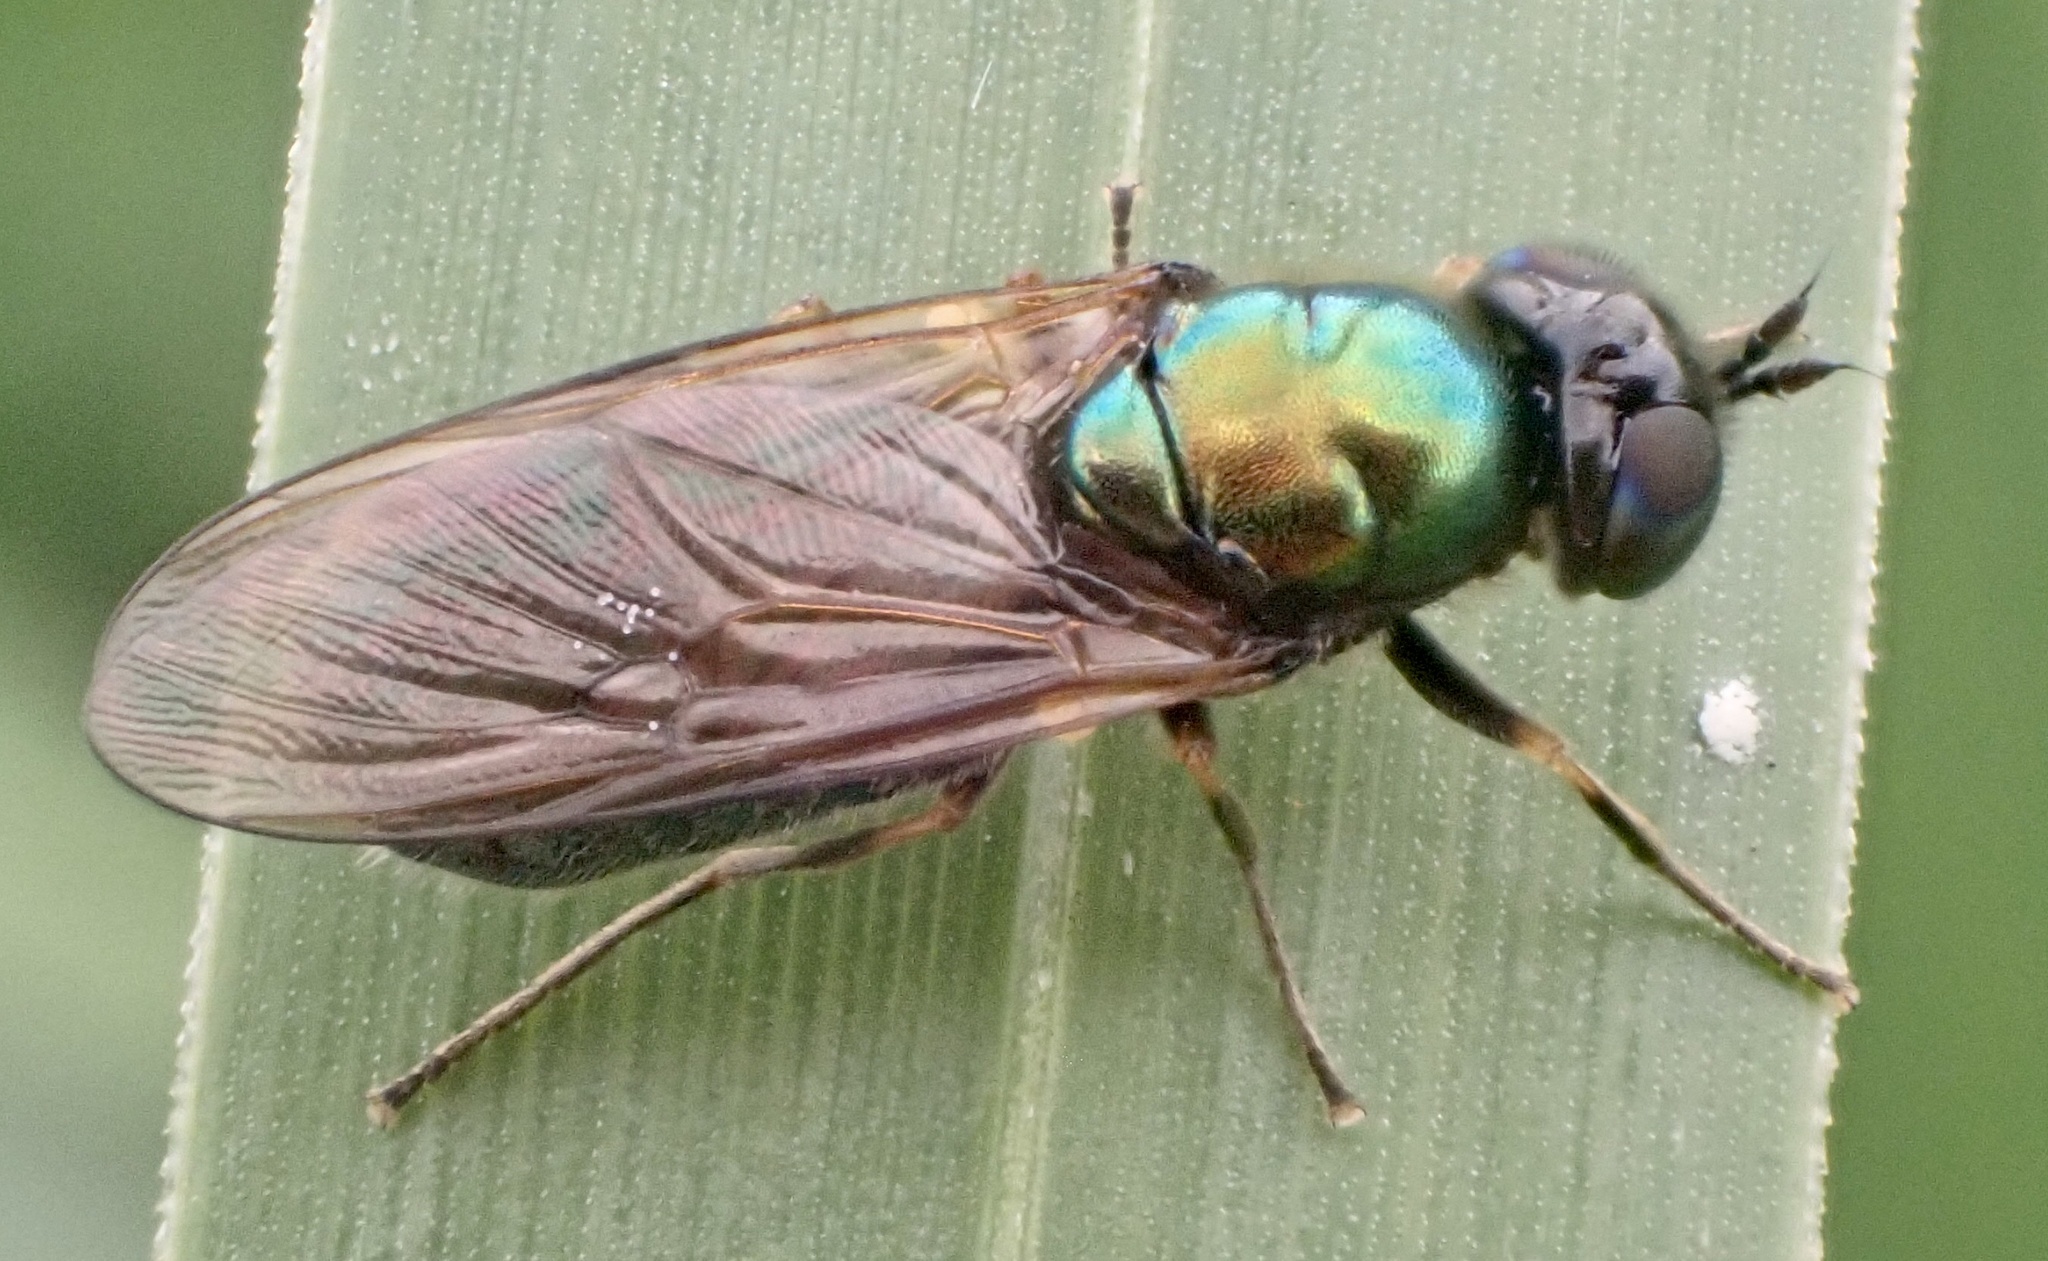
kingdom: Animalia
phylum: Arthropoda
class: Insecta
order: Diptera
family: Stratiomyidae
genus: Chloromyia
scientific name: Chloromyia formosa
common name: Soldier fly
